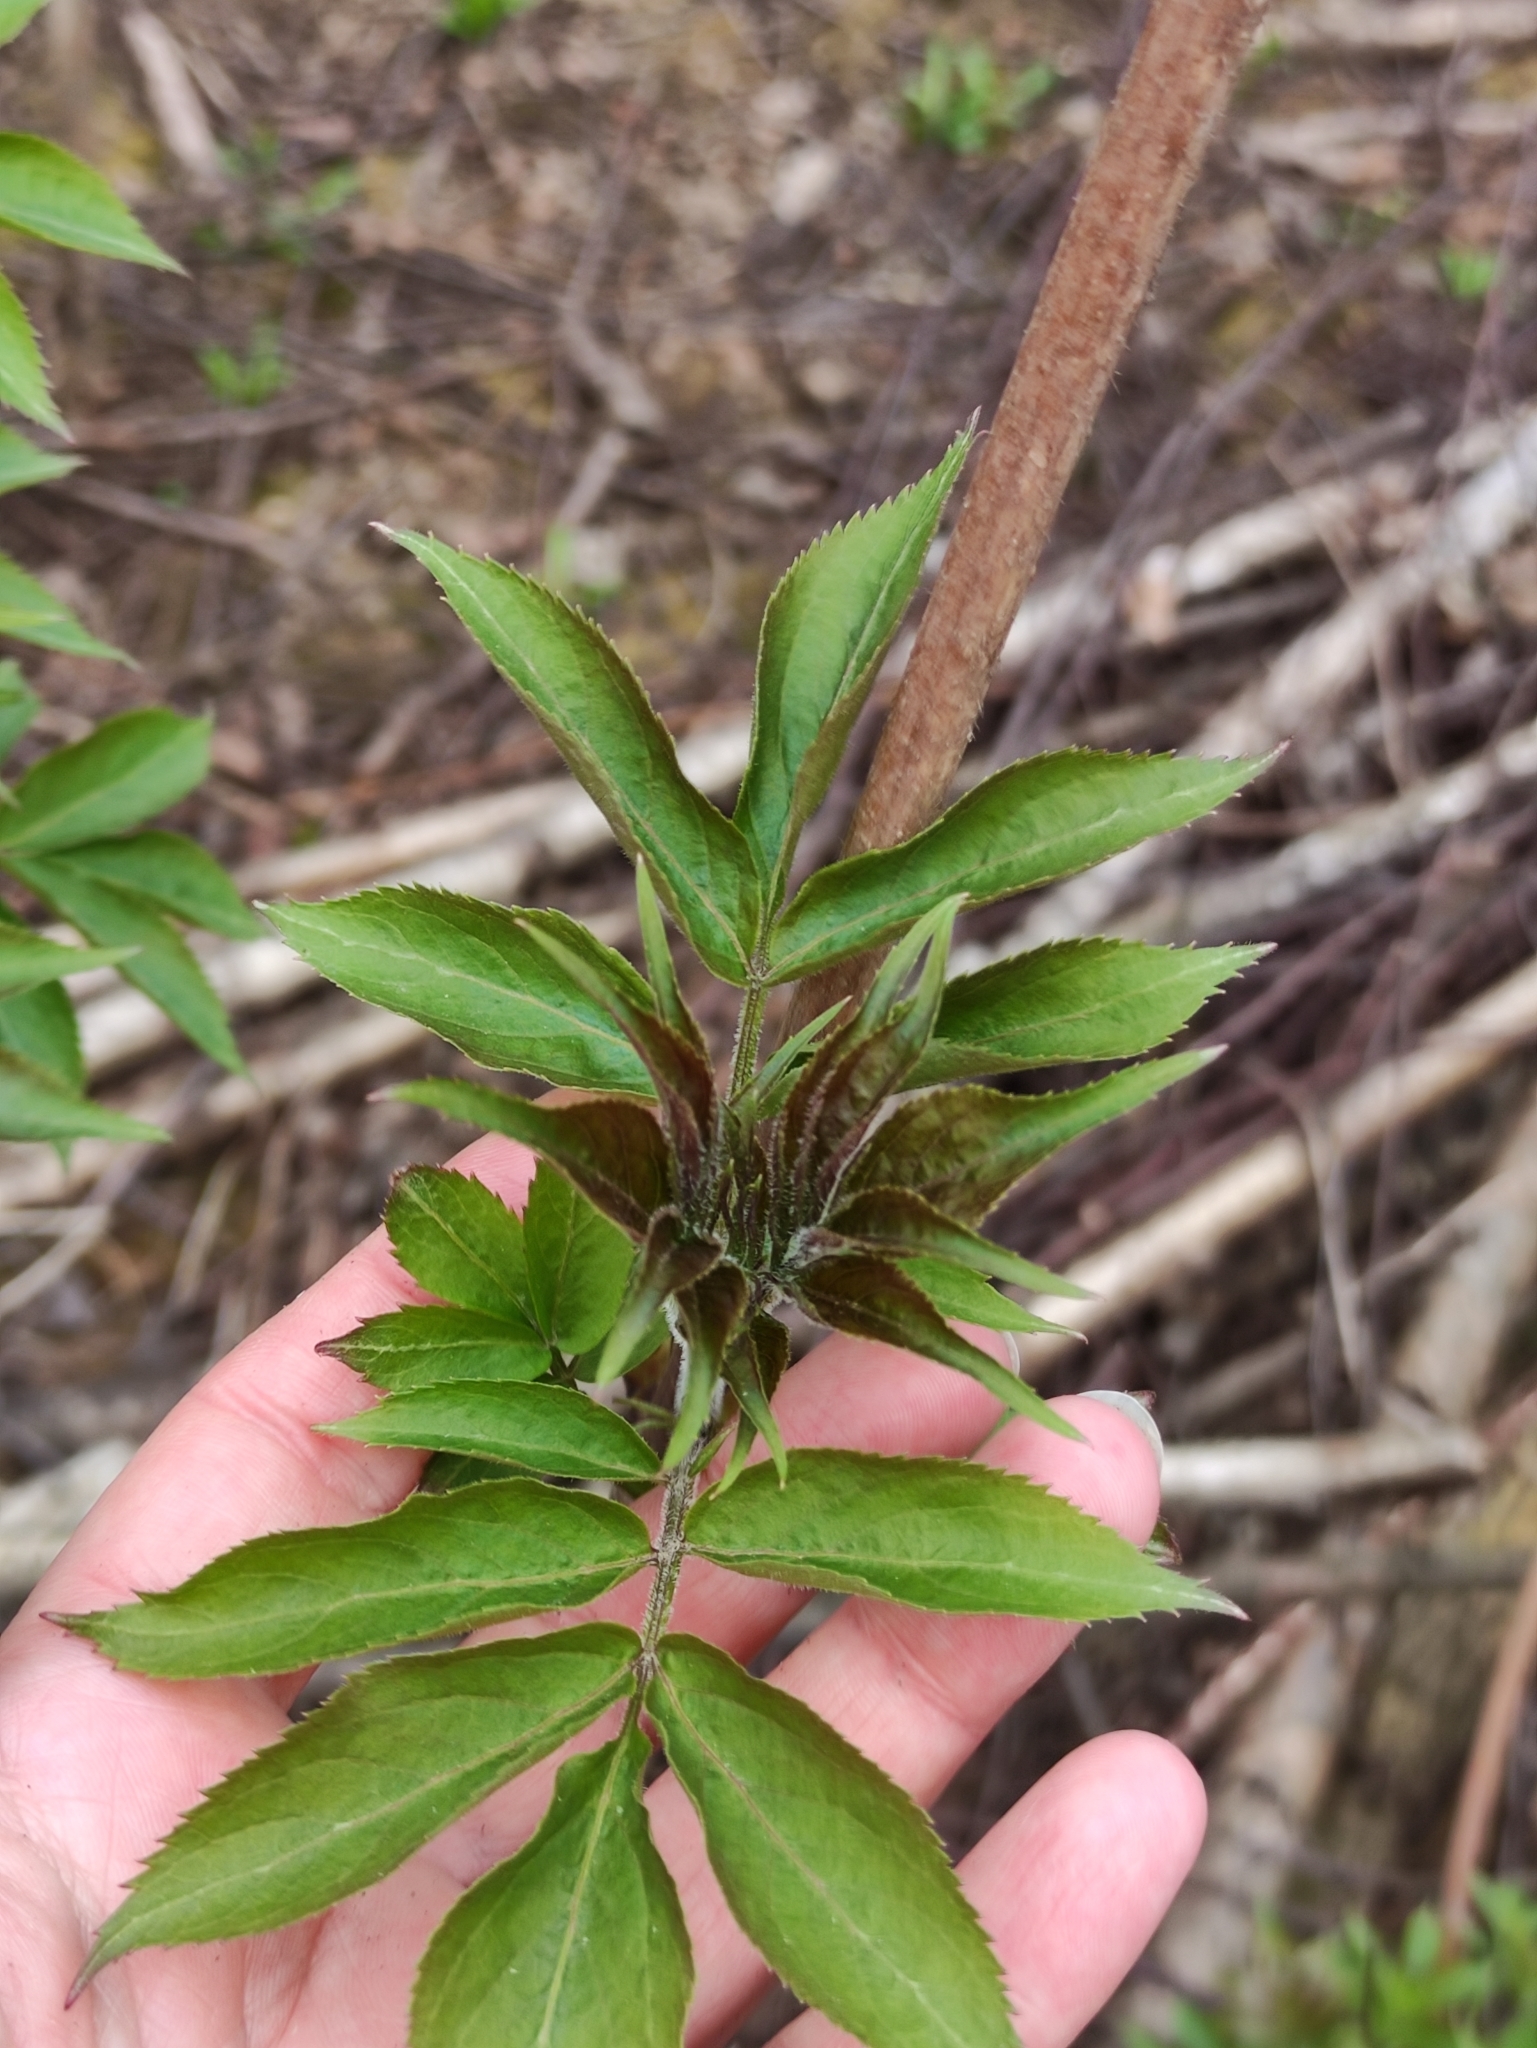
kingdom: Plantae
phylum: Tracheophyta
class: Magnoliopsida
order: Dipsacales
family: Viburnaceae
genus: Sambucus
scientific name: Sambucus racemosa
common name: Red-berried elder
